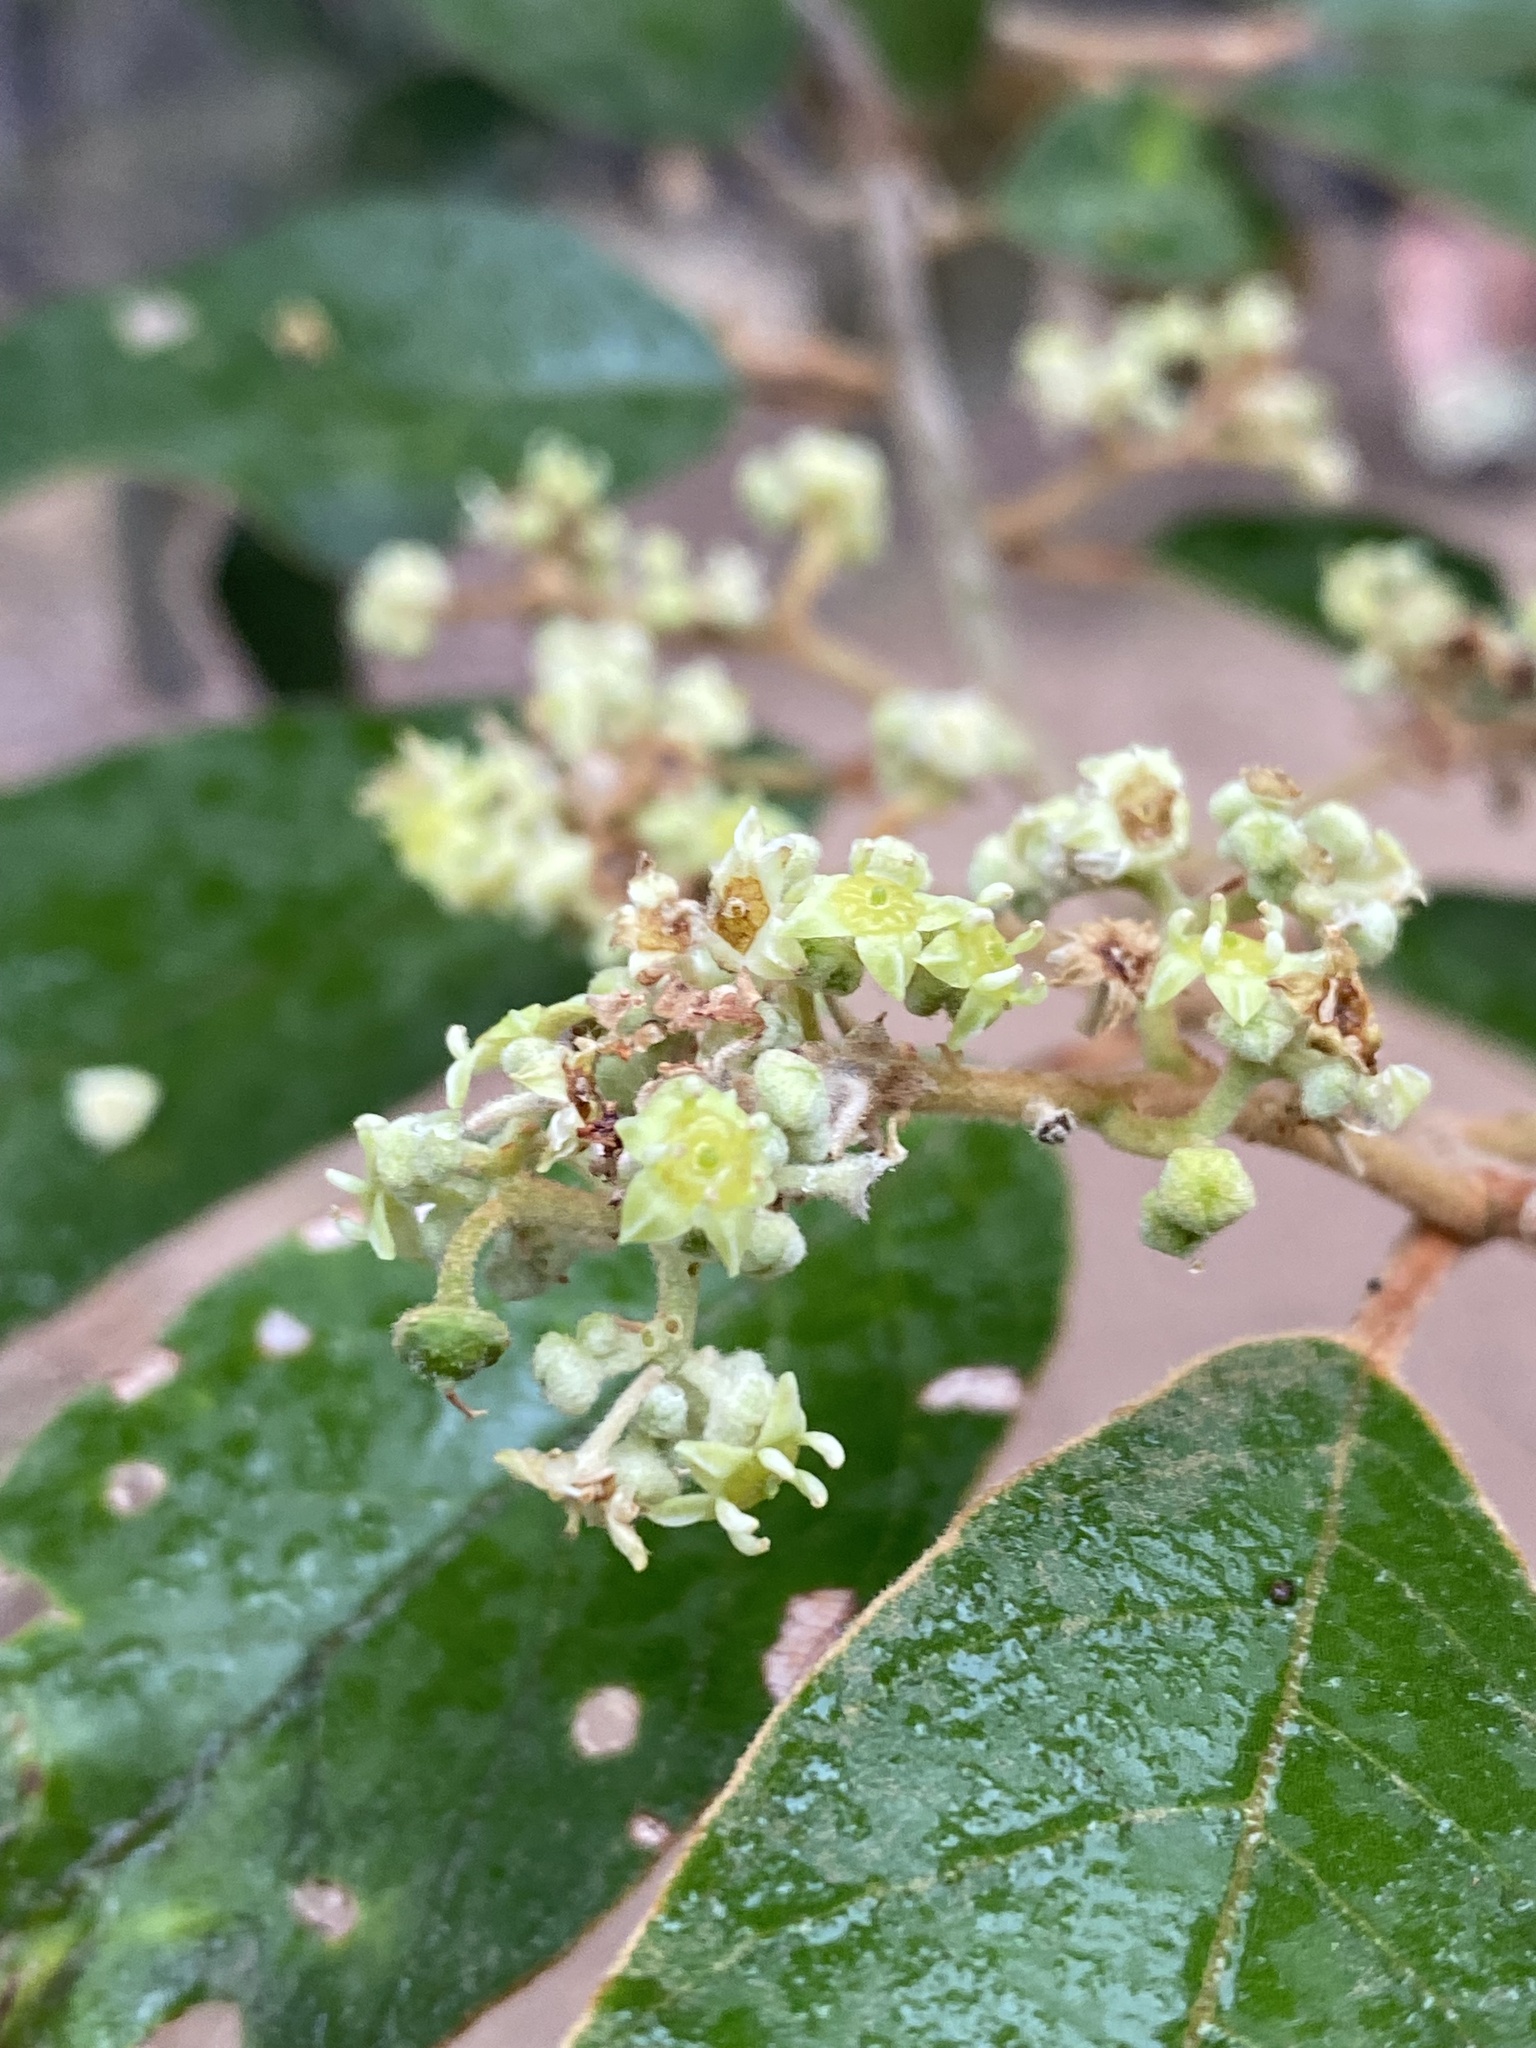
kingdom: Plantae
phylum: Tracheophyta
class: Magnoliopsida
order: Rosales
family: Rhamnaceae
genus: Alphitonia
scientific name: Alphitonia excelsa
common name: Red ash
